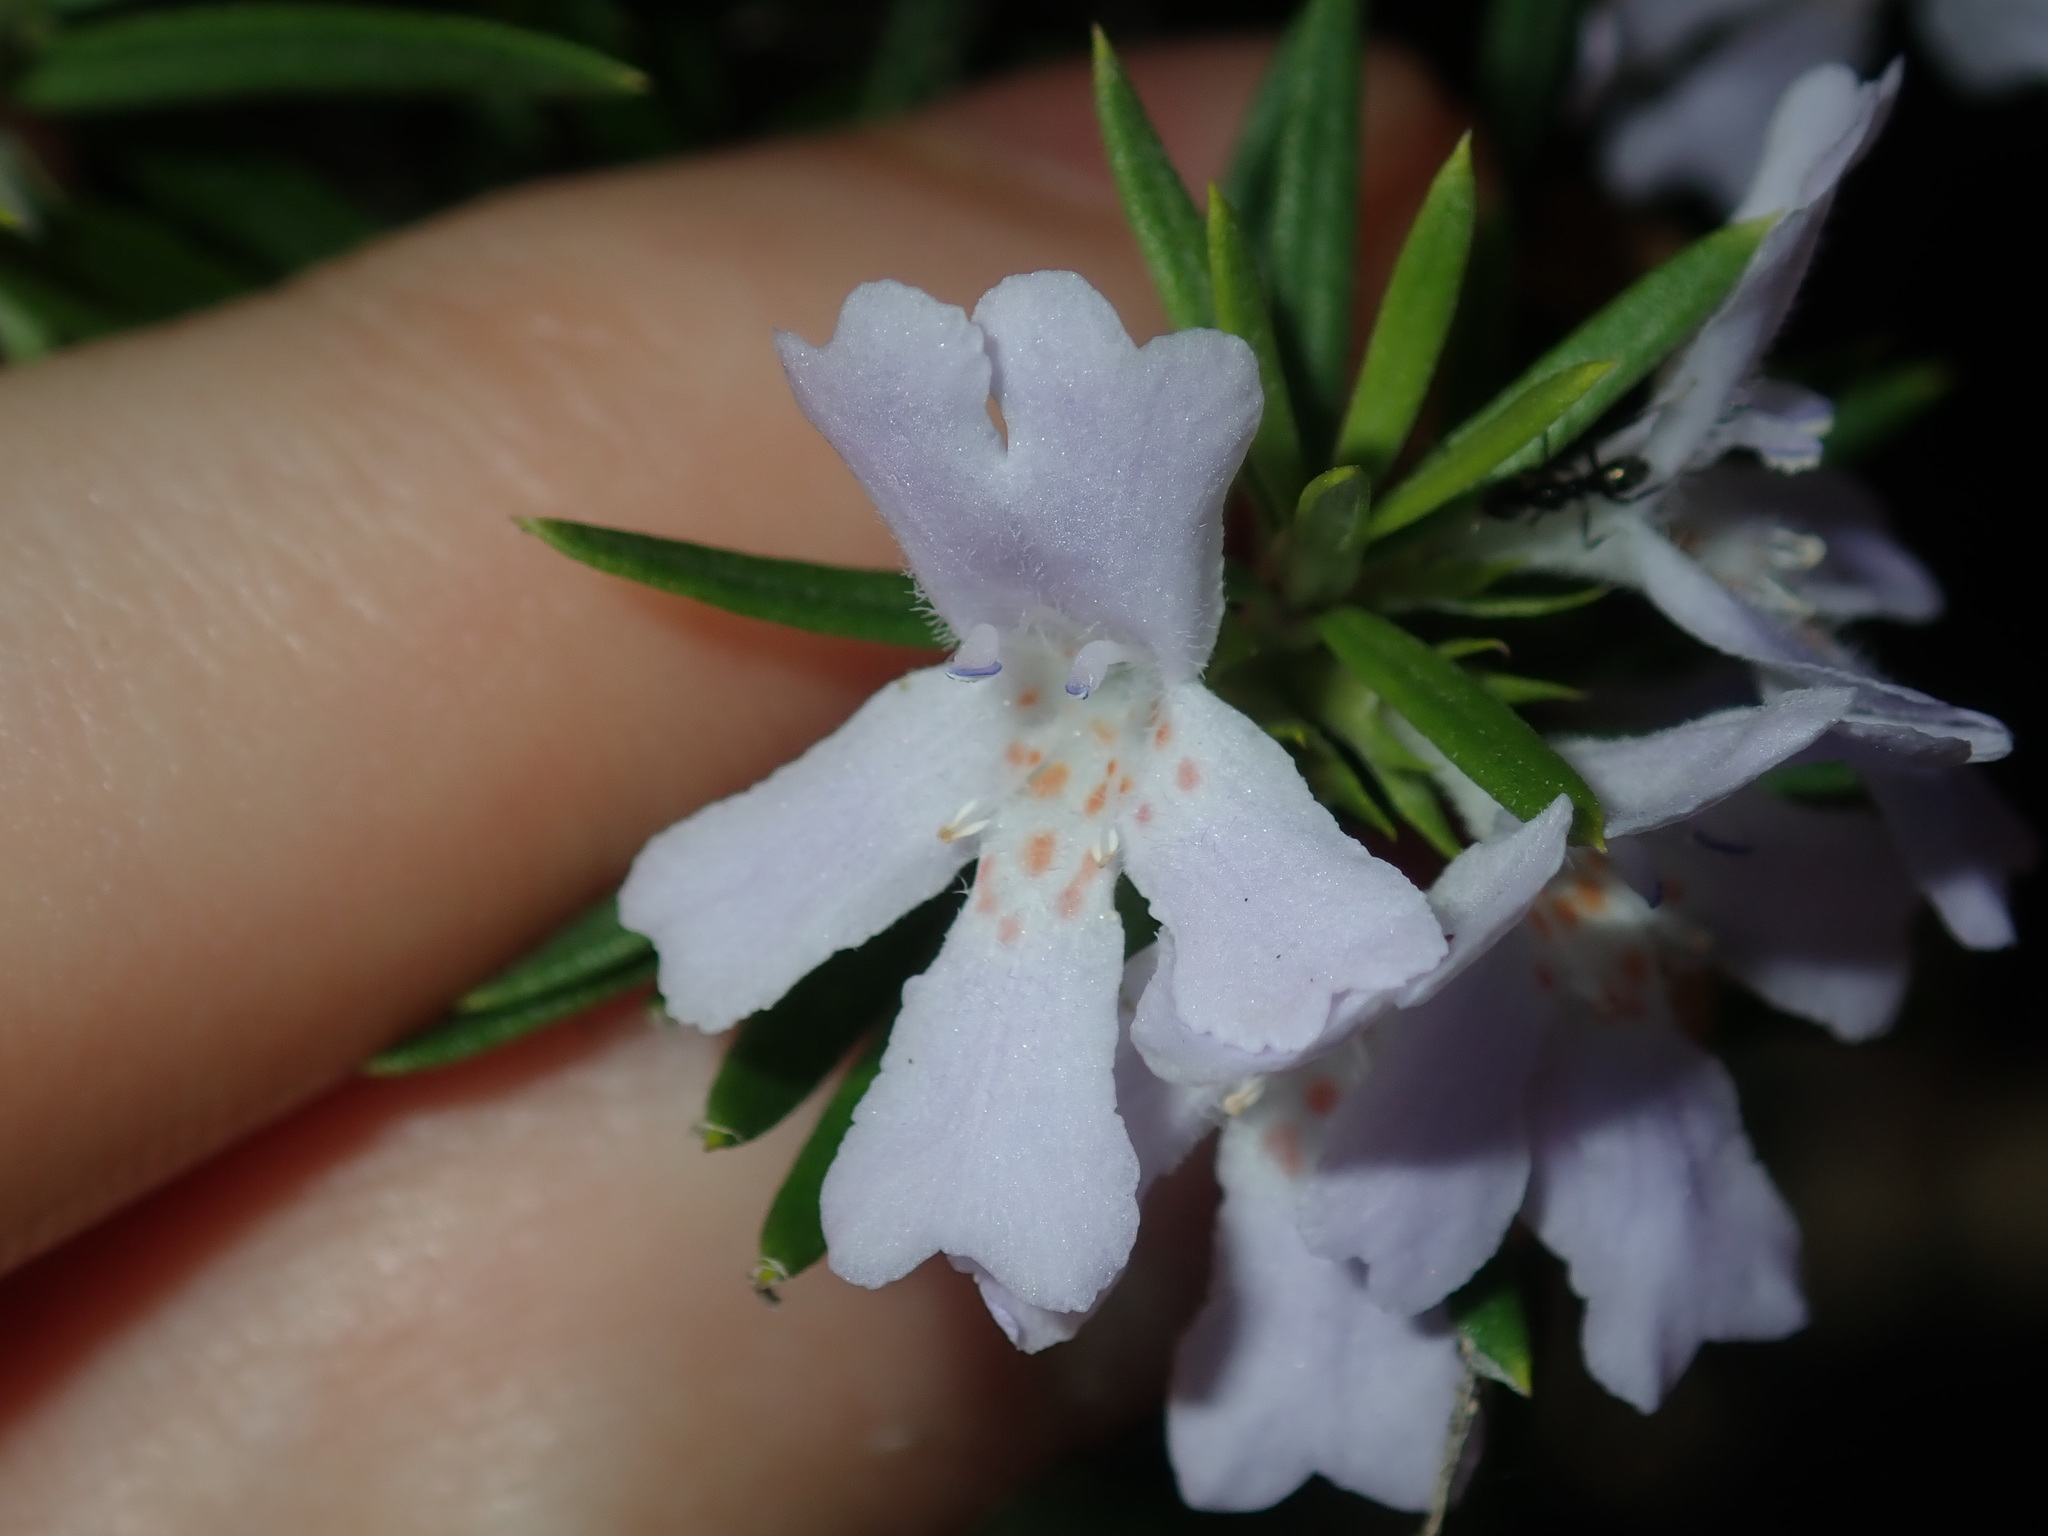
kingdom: Plantae
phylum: Tracheophyta
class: Magnoliopsida
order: Lamiales
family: Lamiaceae
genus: Westringia
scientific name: Westringia fruticosa
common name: Coastal-rosemary
